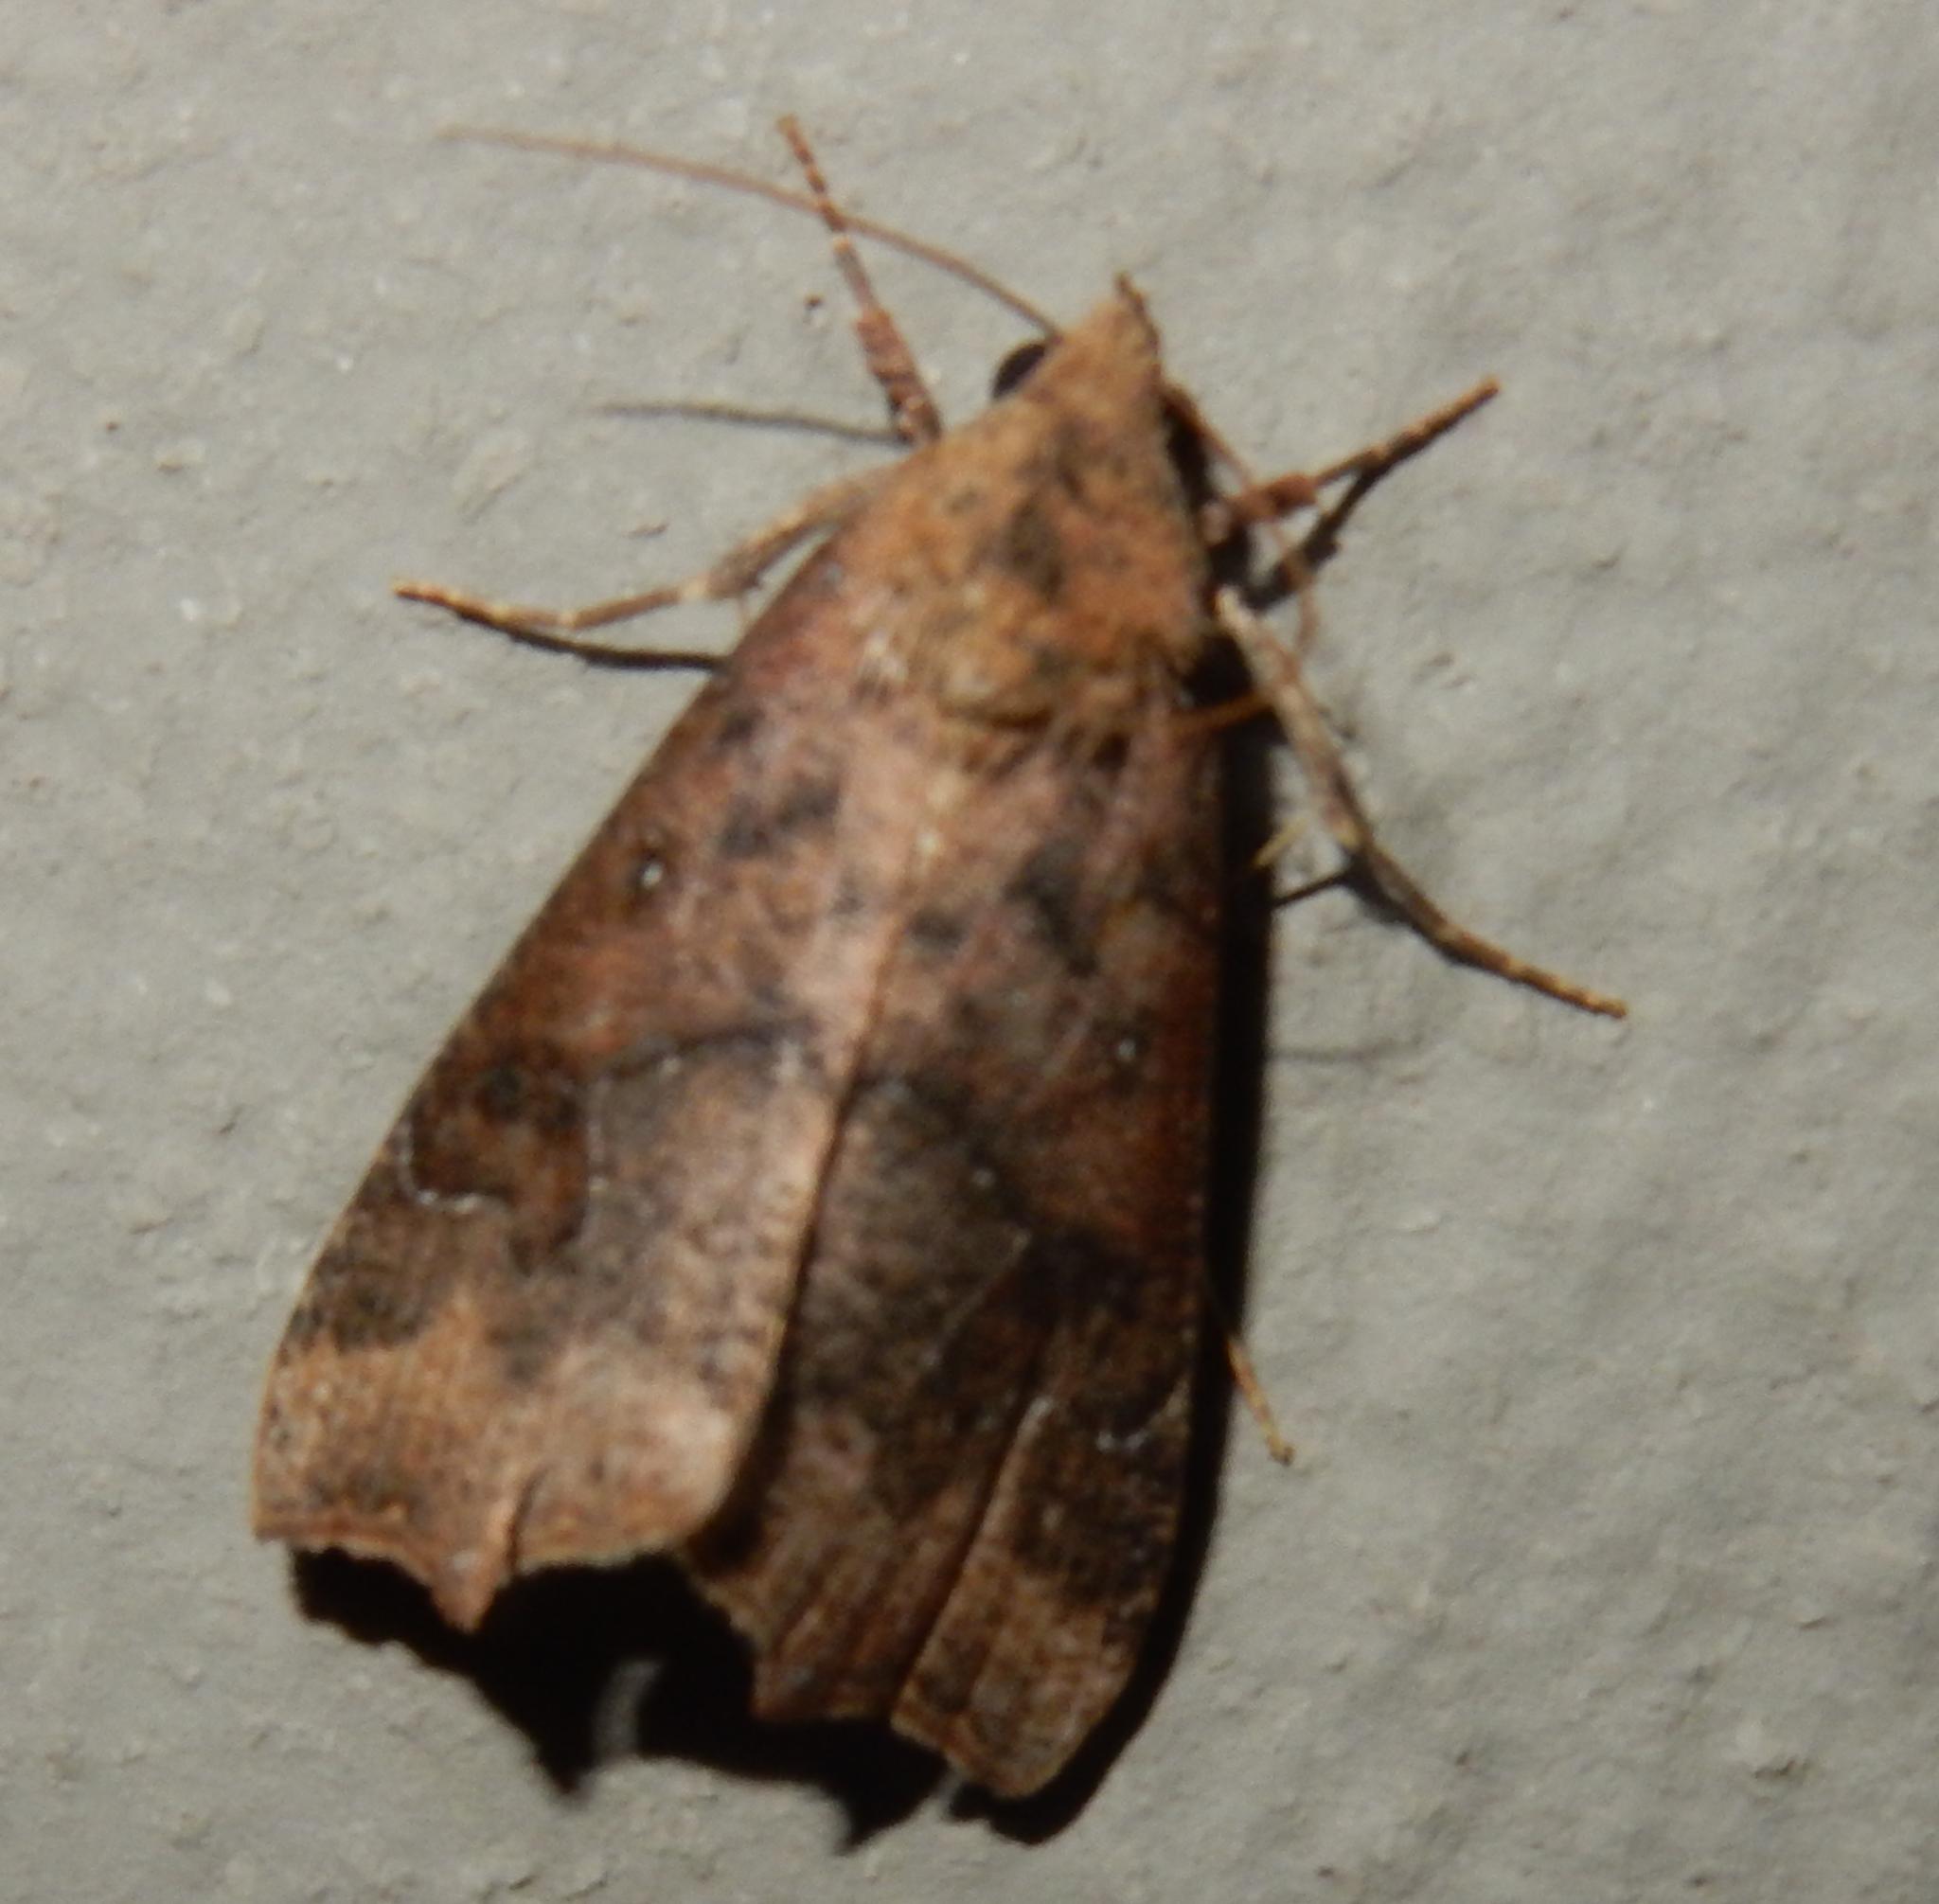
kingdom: Animalia
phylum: Arthropoda
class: Insecta
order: Lepidoptera
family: Erebidae
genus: Anomis
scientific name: Anomis sabulifera
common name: Angled gem
